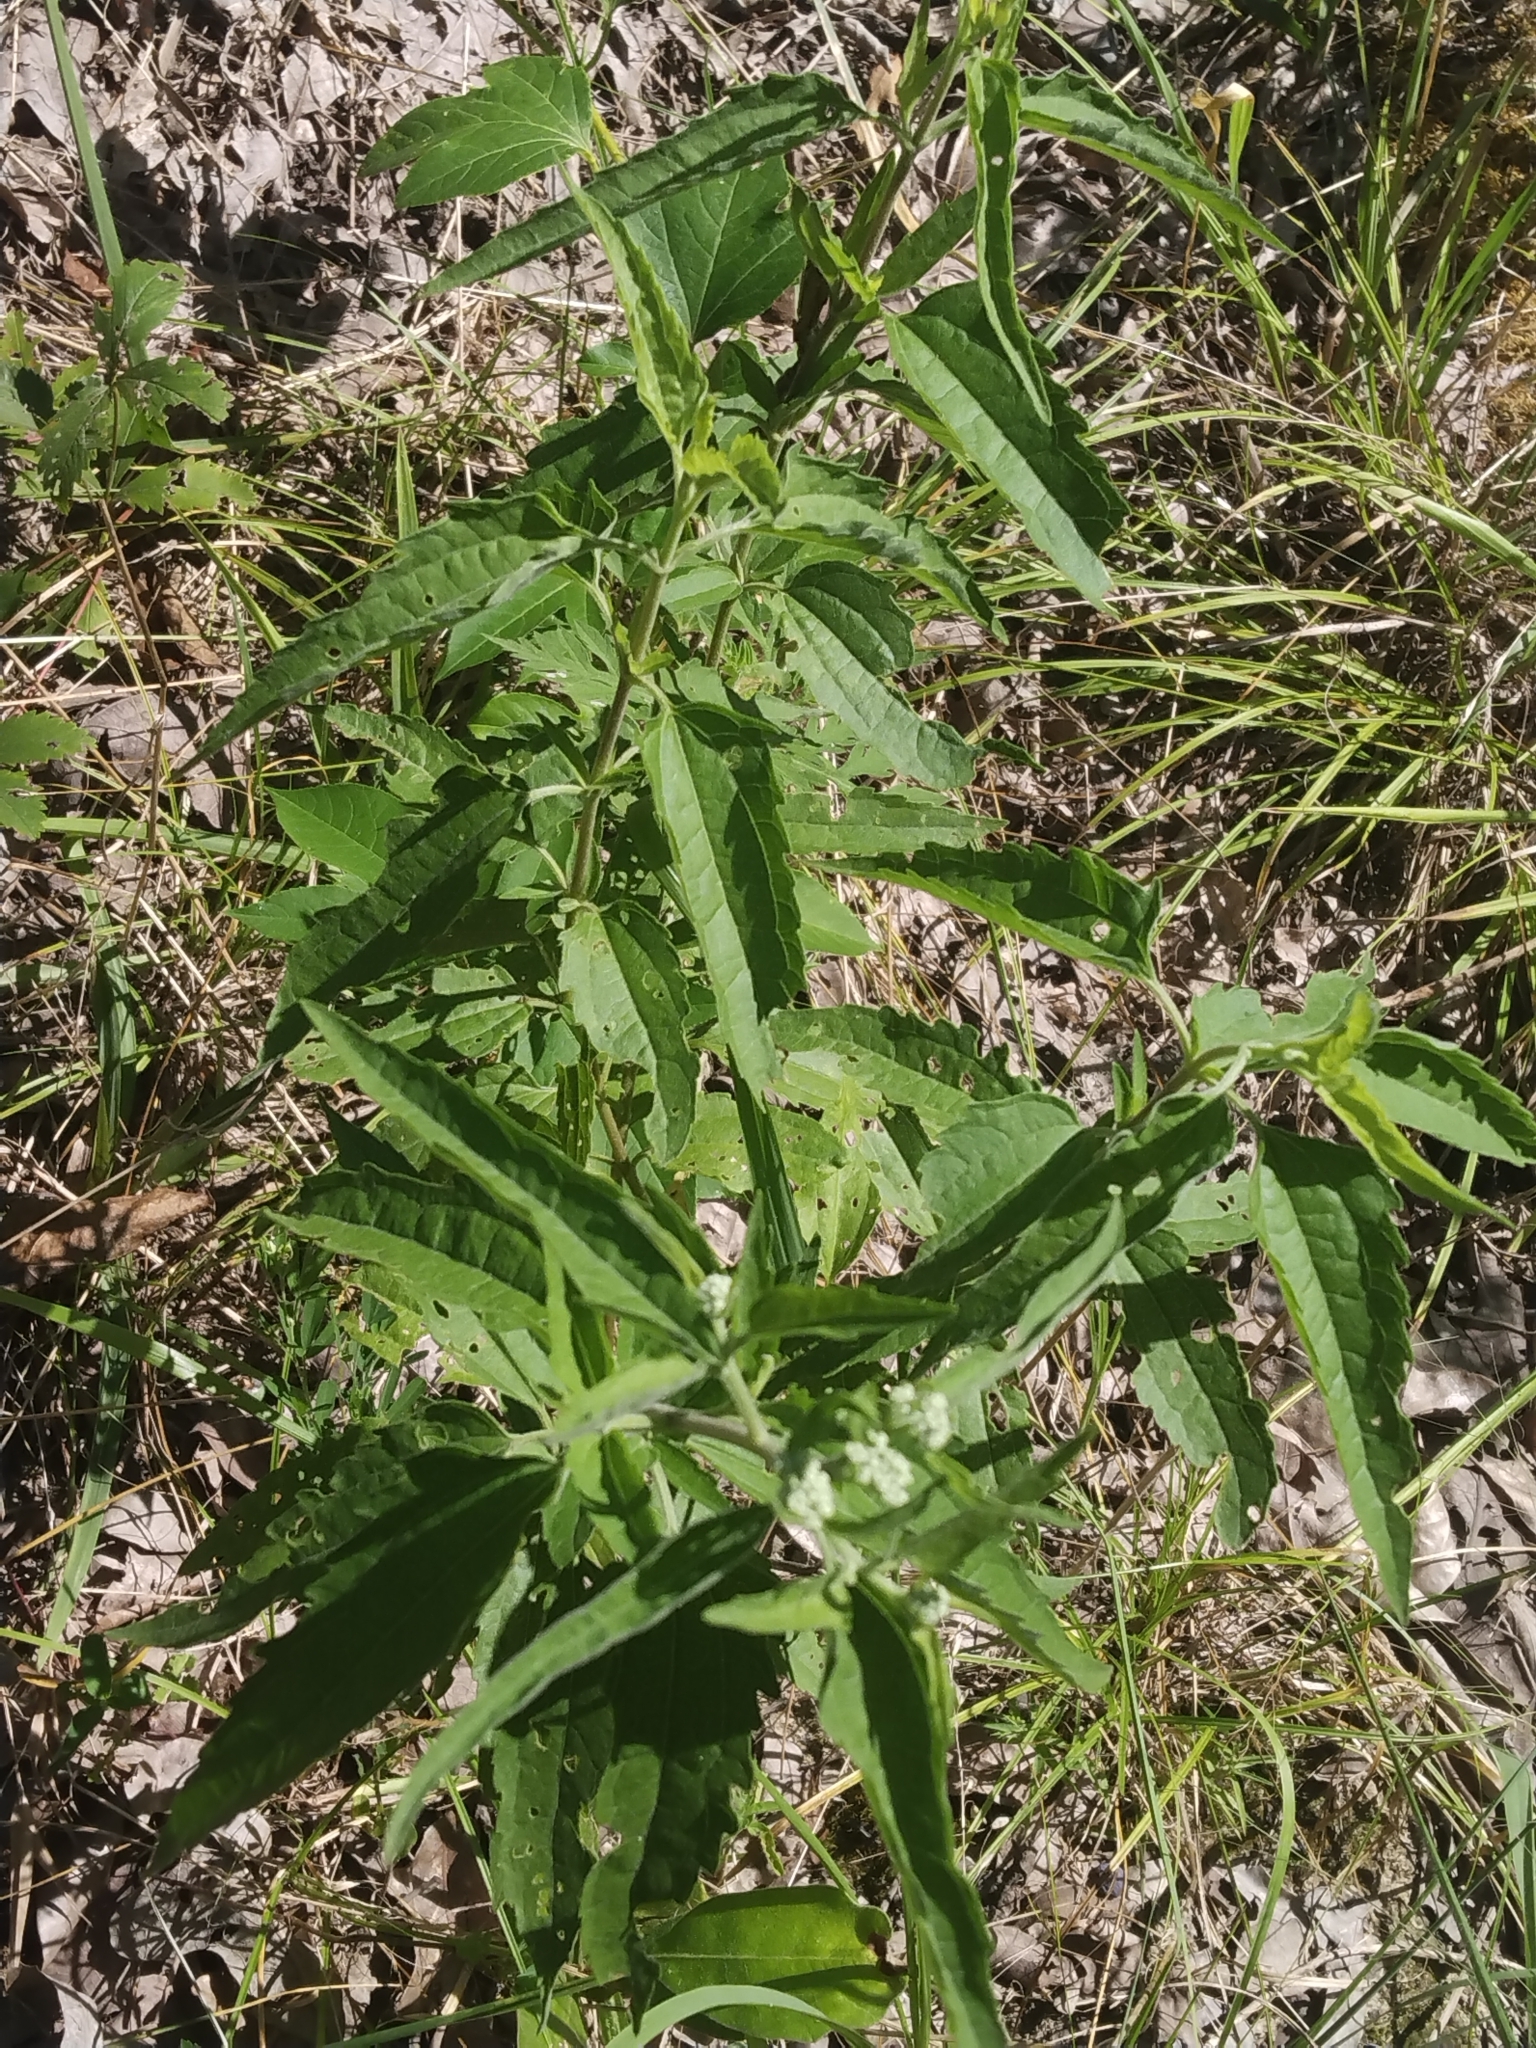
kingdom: Plantae
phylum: Tracheophyta
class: Magnoliopsida
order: Asterales
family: Asteraceae
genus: Eupatorium
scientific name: Eupatorium serotinum
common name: Late boneset
